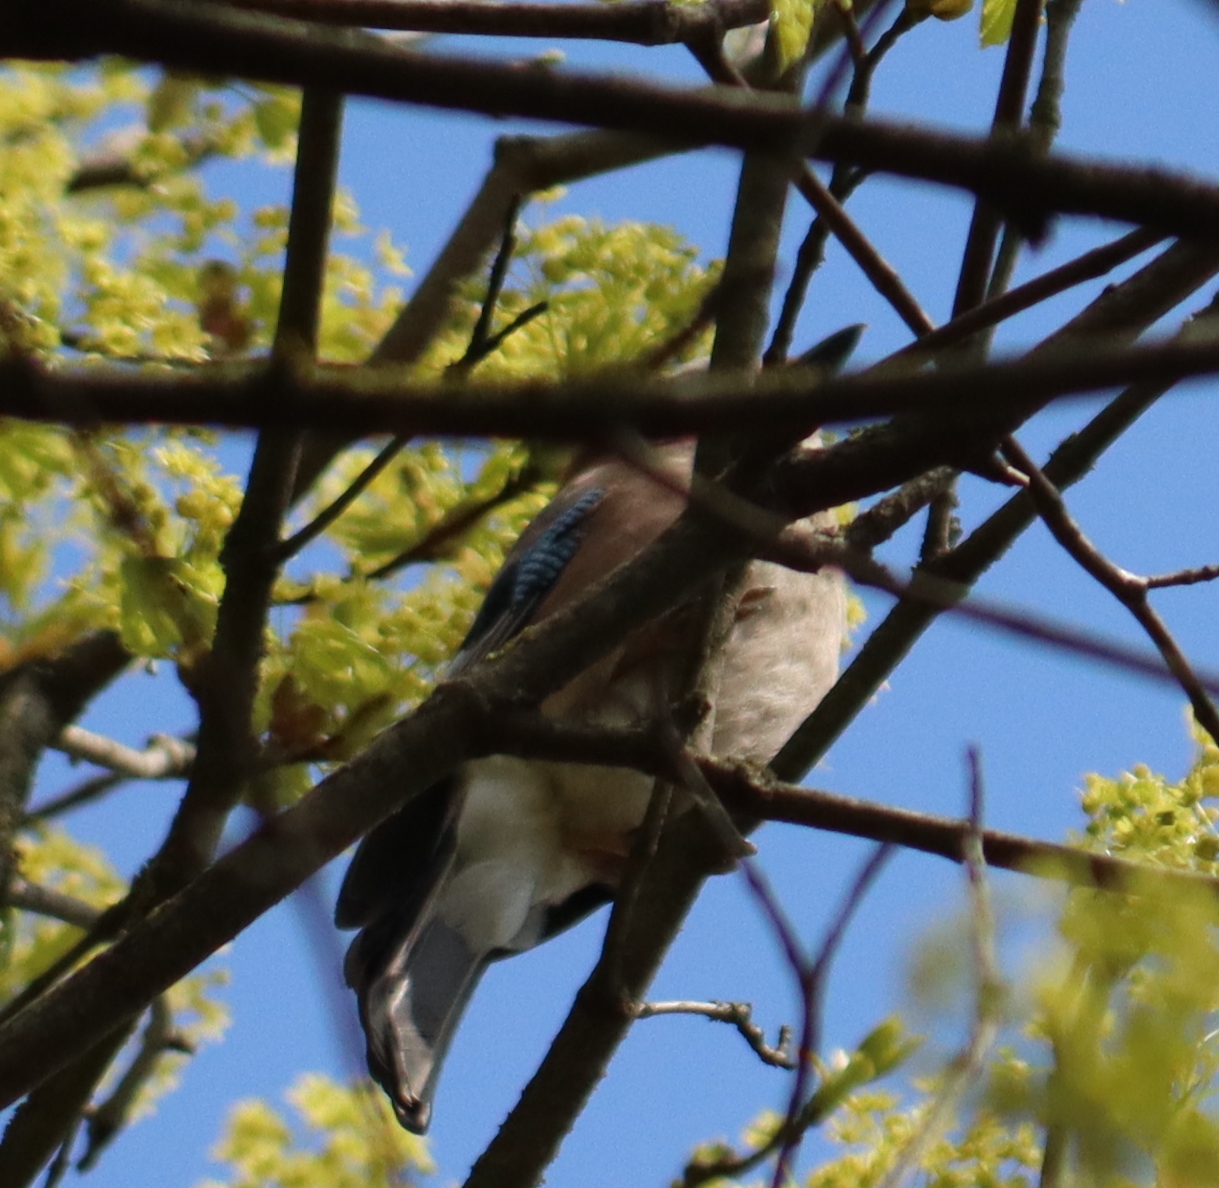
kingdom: Animalia
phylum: Chordata
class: Aves
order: Passeriformes
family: Corvidae
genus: Garrulus
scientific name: Garrulus glandarius
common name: Eurasian jay
